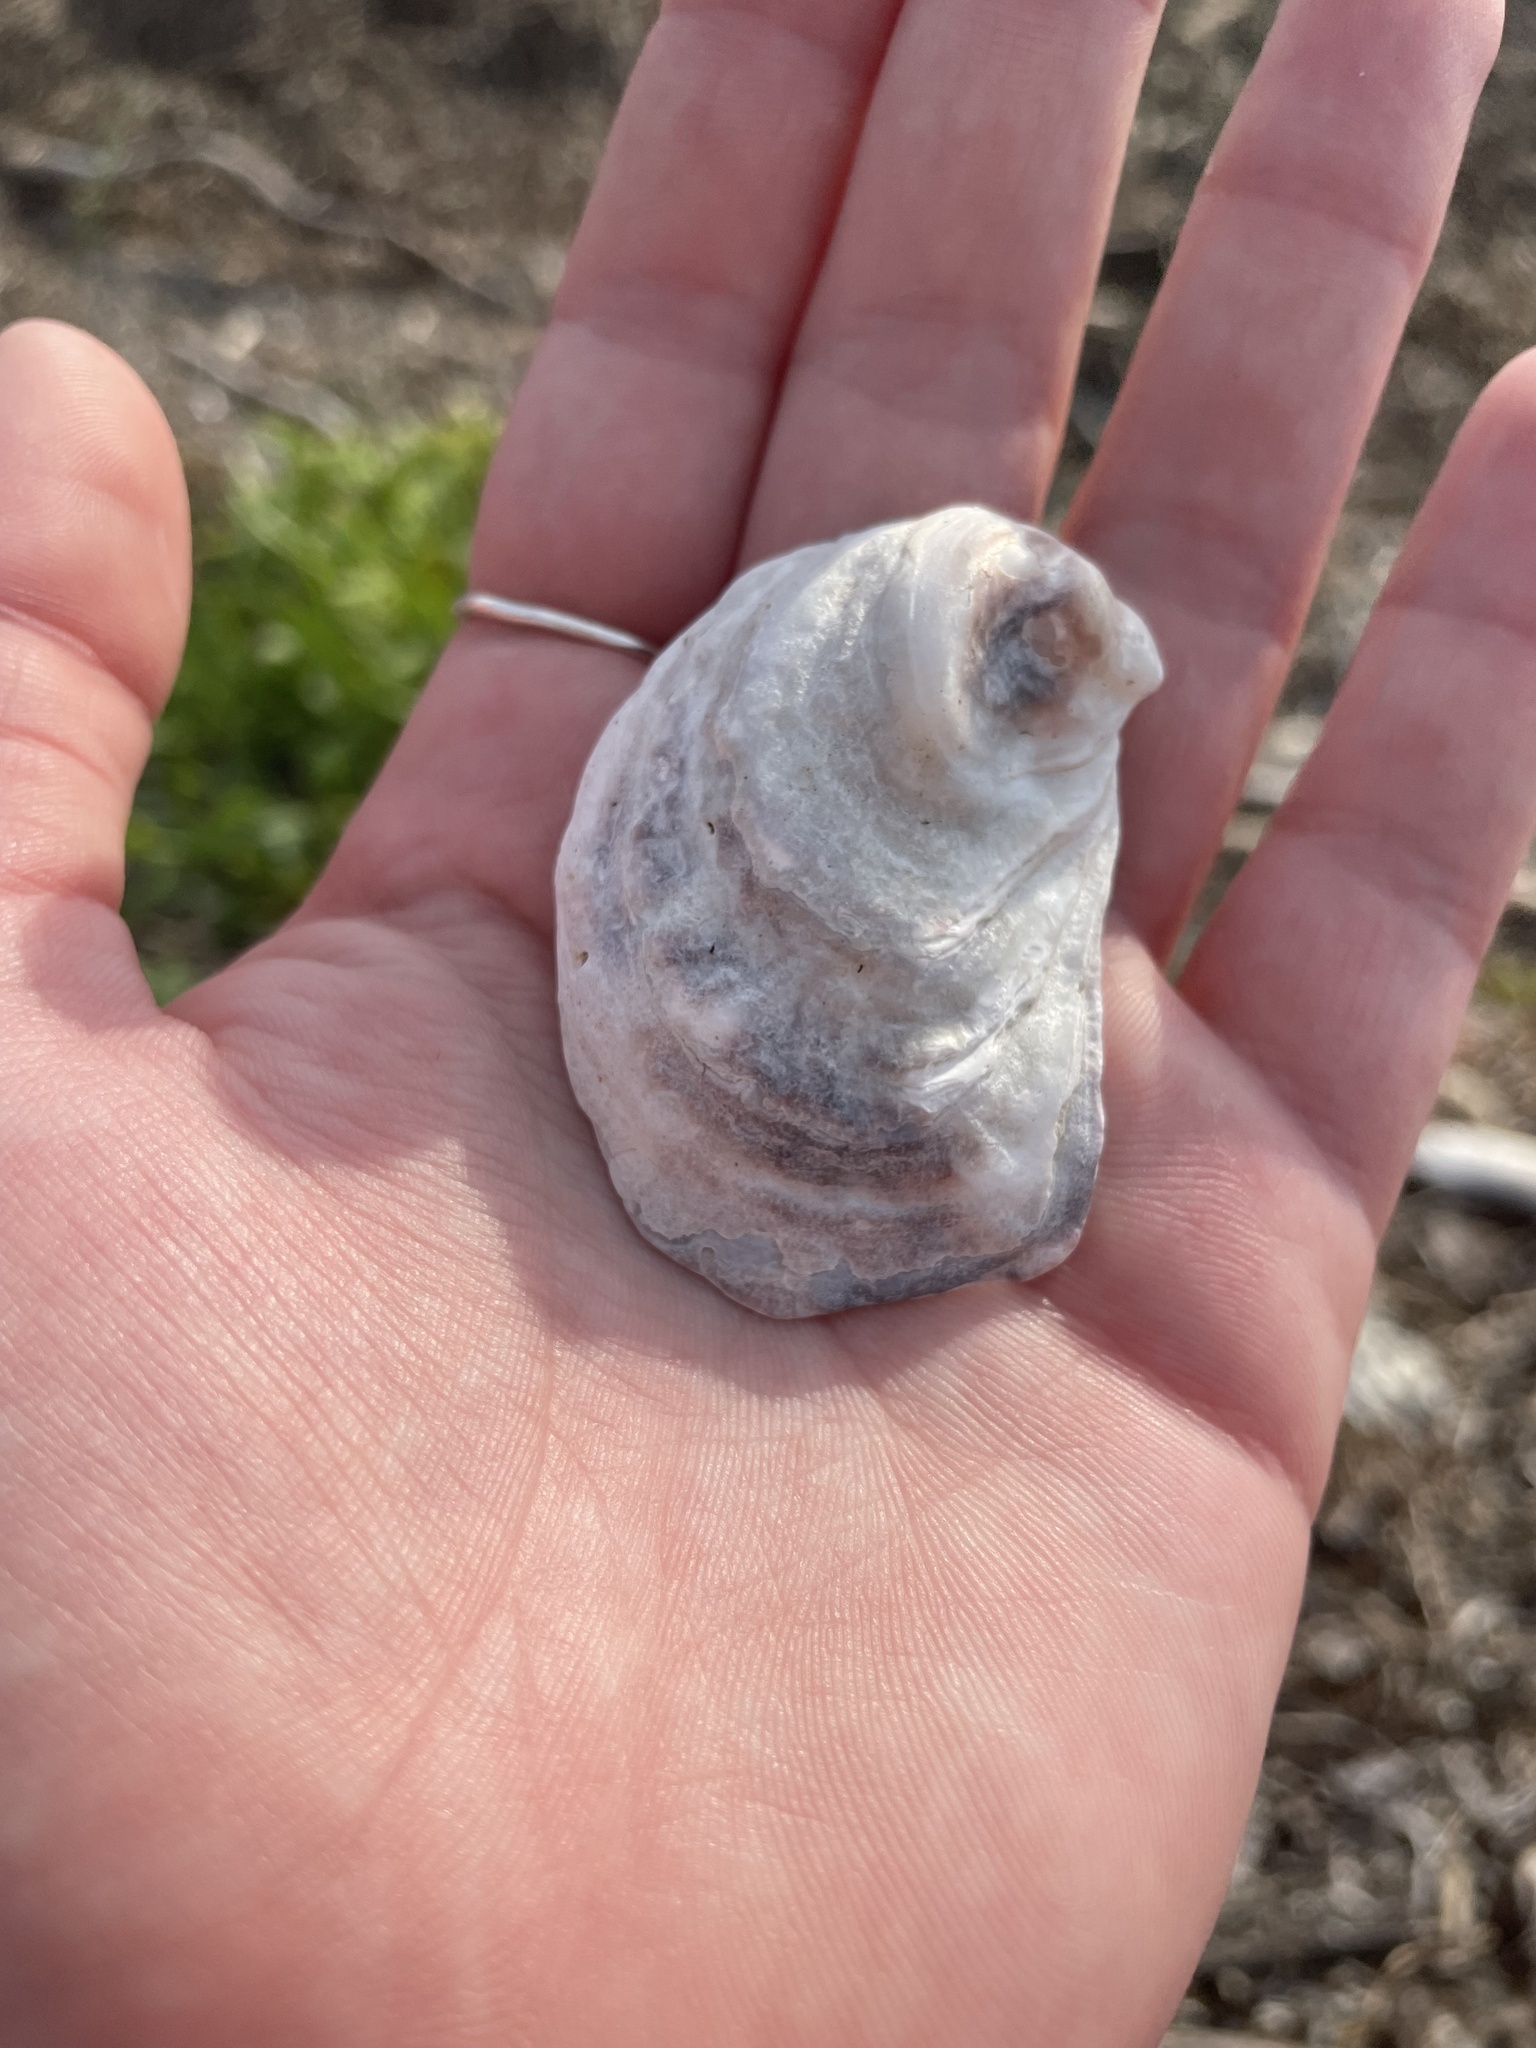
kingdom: Animalia
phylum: Mollusca
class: Bivalvia
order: Ostreida
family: Ostreidae
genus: Crassostrea
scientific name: Crassostrea virginica
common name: American oyster
